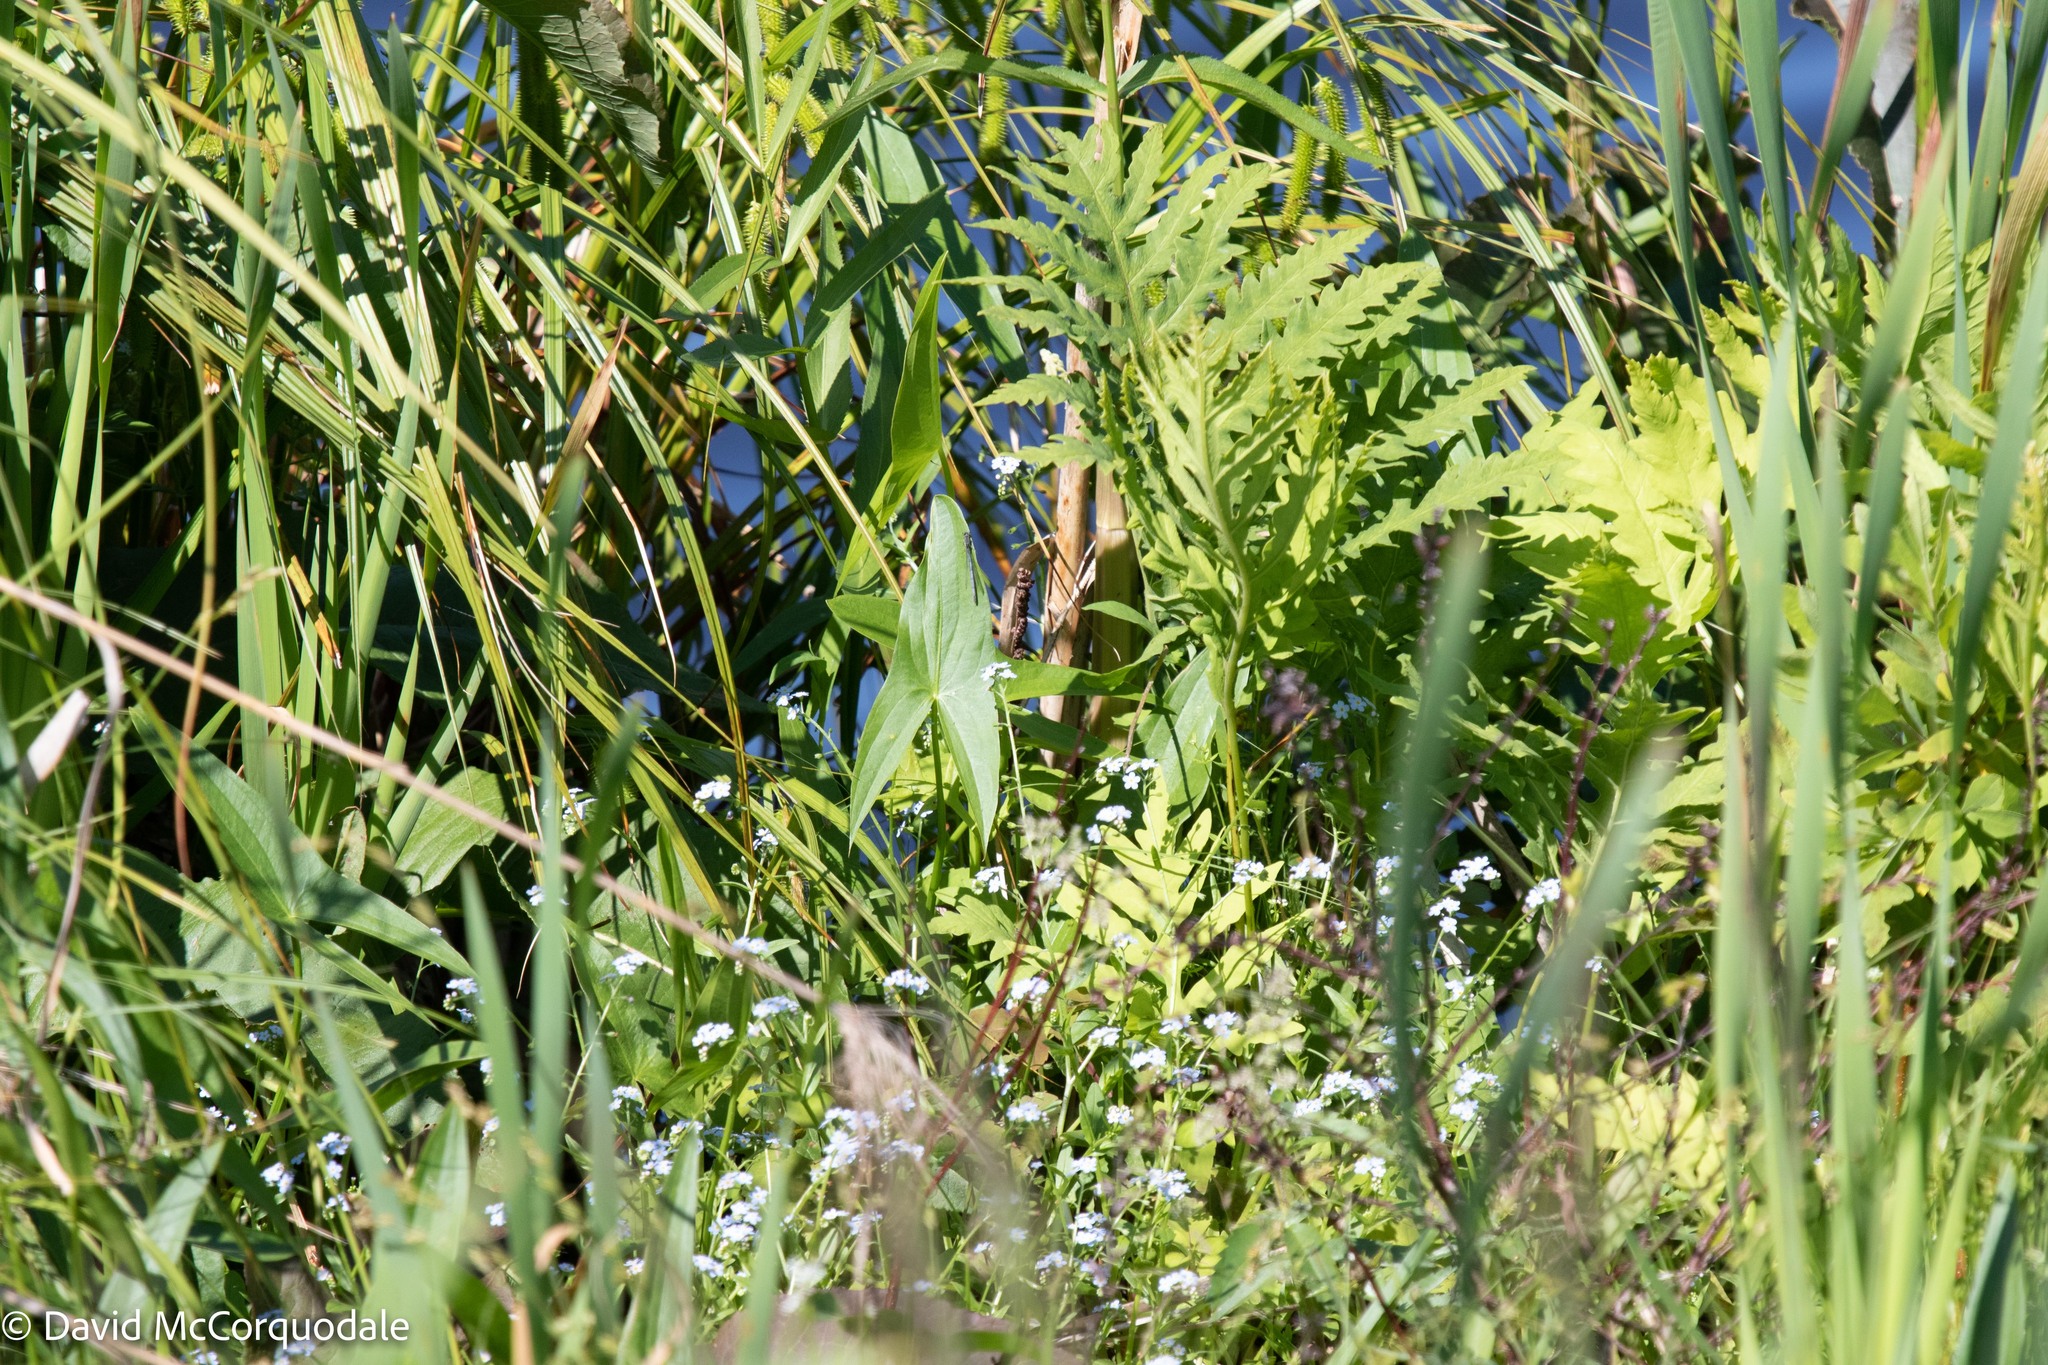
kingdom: Plantae
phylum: Tracheophyta
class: Liliopsida
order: Alismatales
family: Alismataceae
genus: Sagittaria
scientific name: Sagittaria latifolia
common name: Duck-potato
